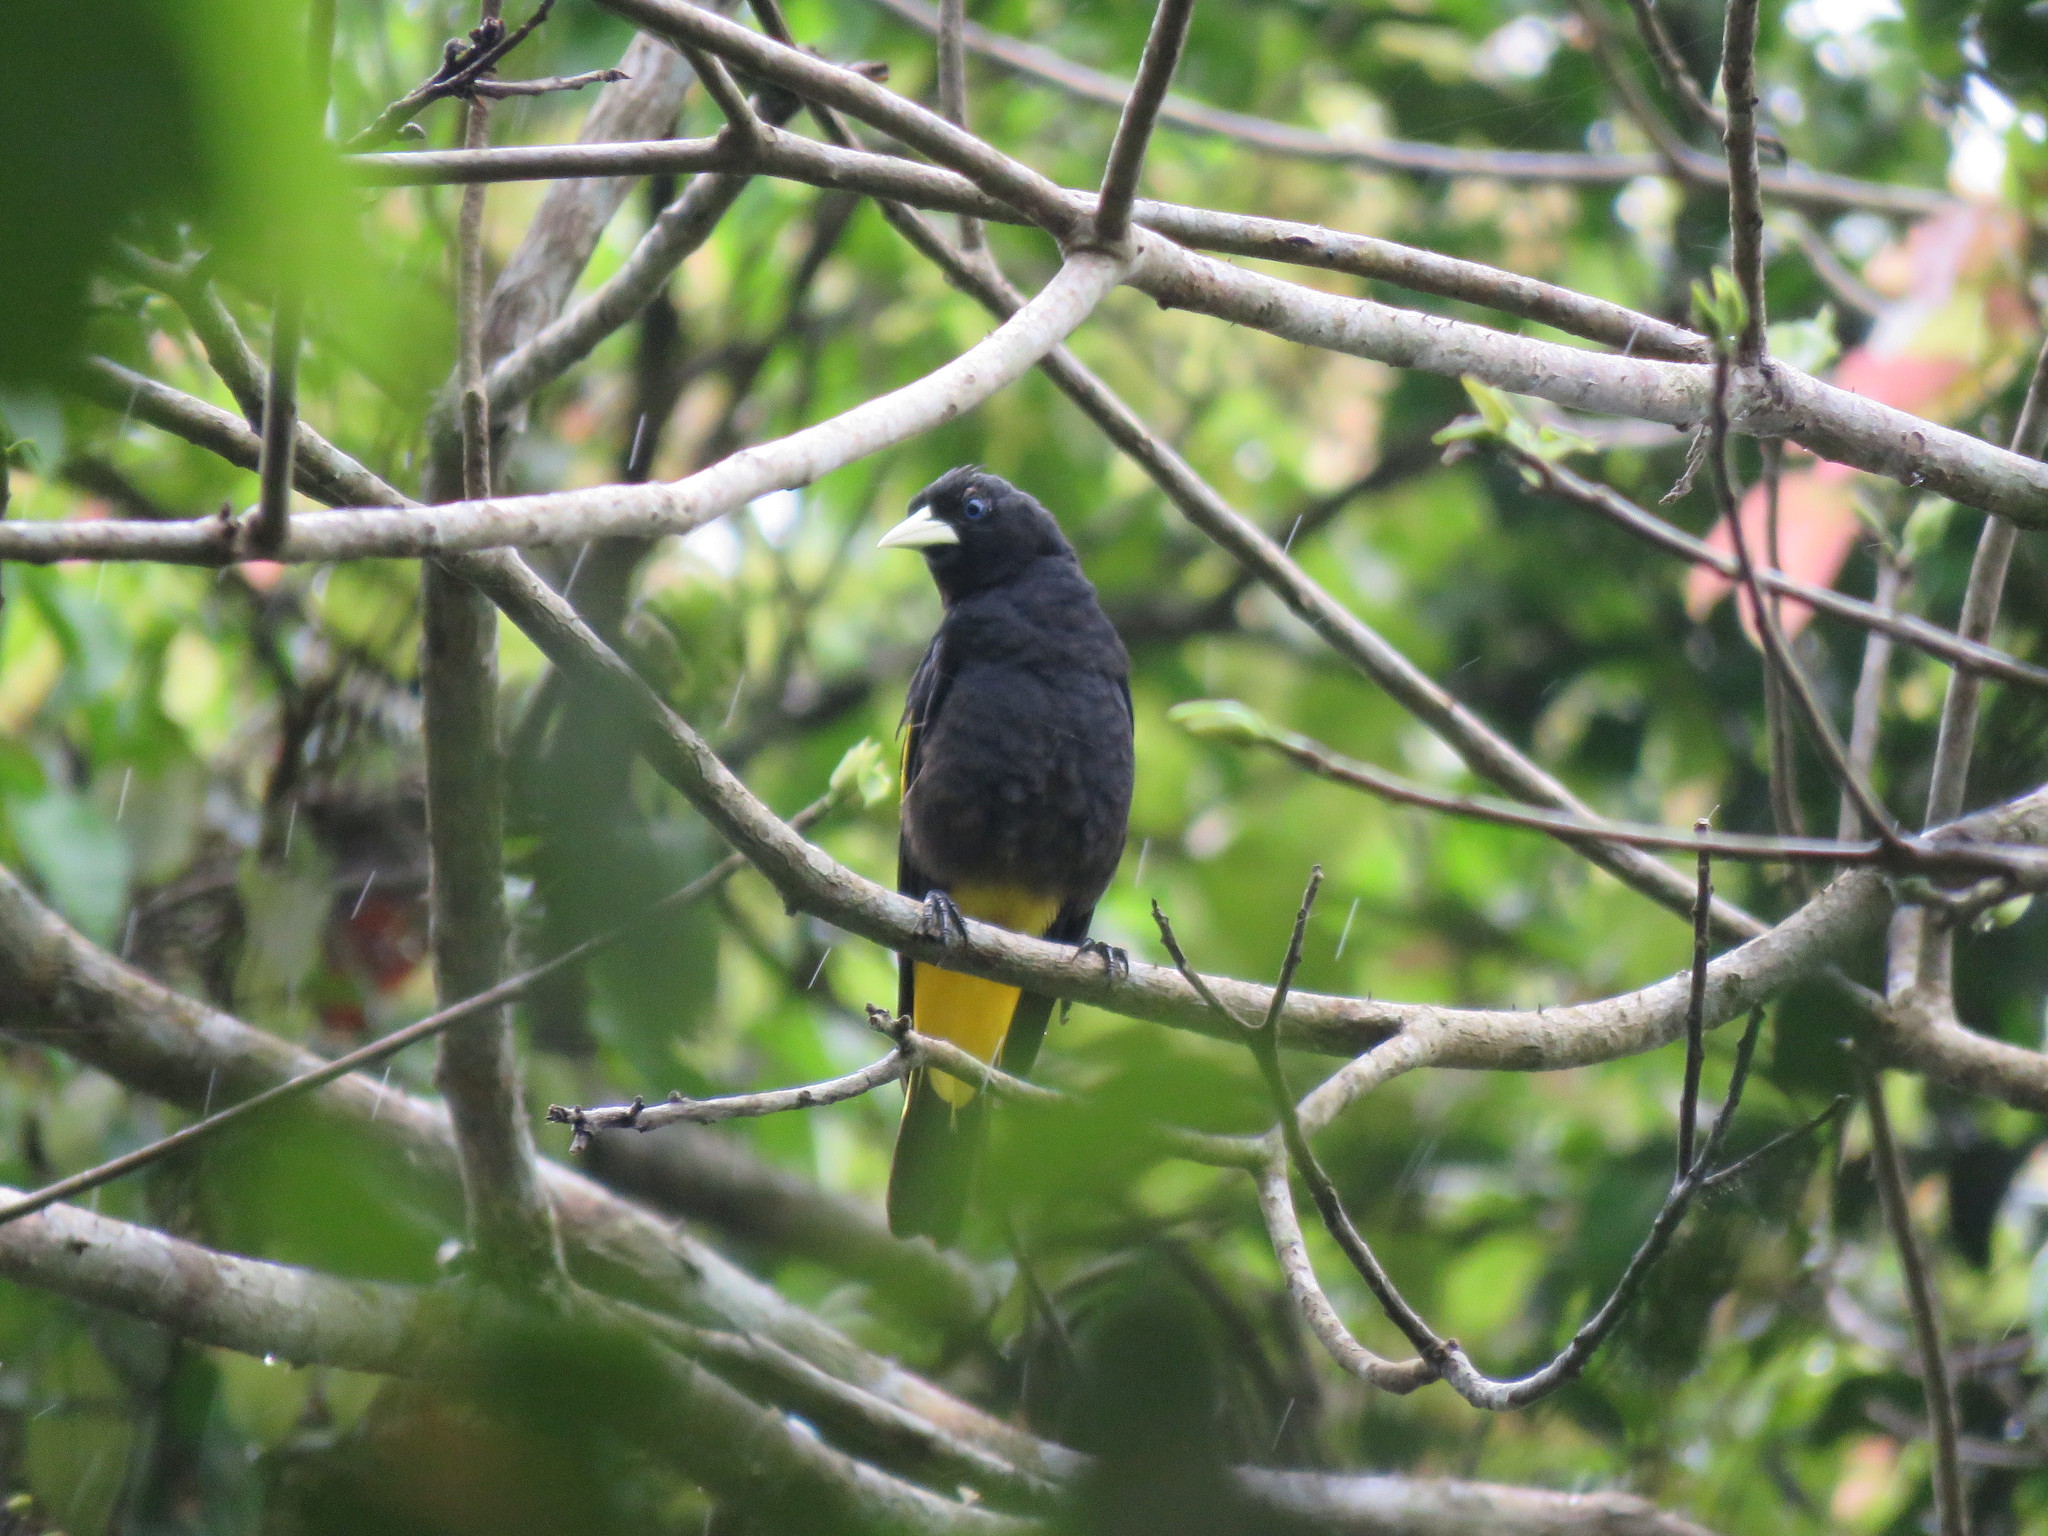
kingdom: Animalia
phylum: Chordata
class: Aves
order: Passeriformes
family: Icteridae
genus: Cacicus
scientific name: Cacicus cela
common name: Yellow-rumped cacique
